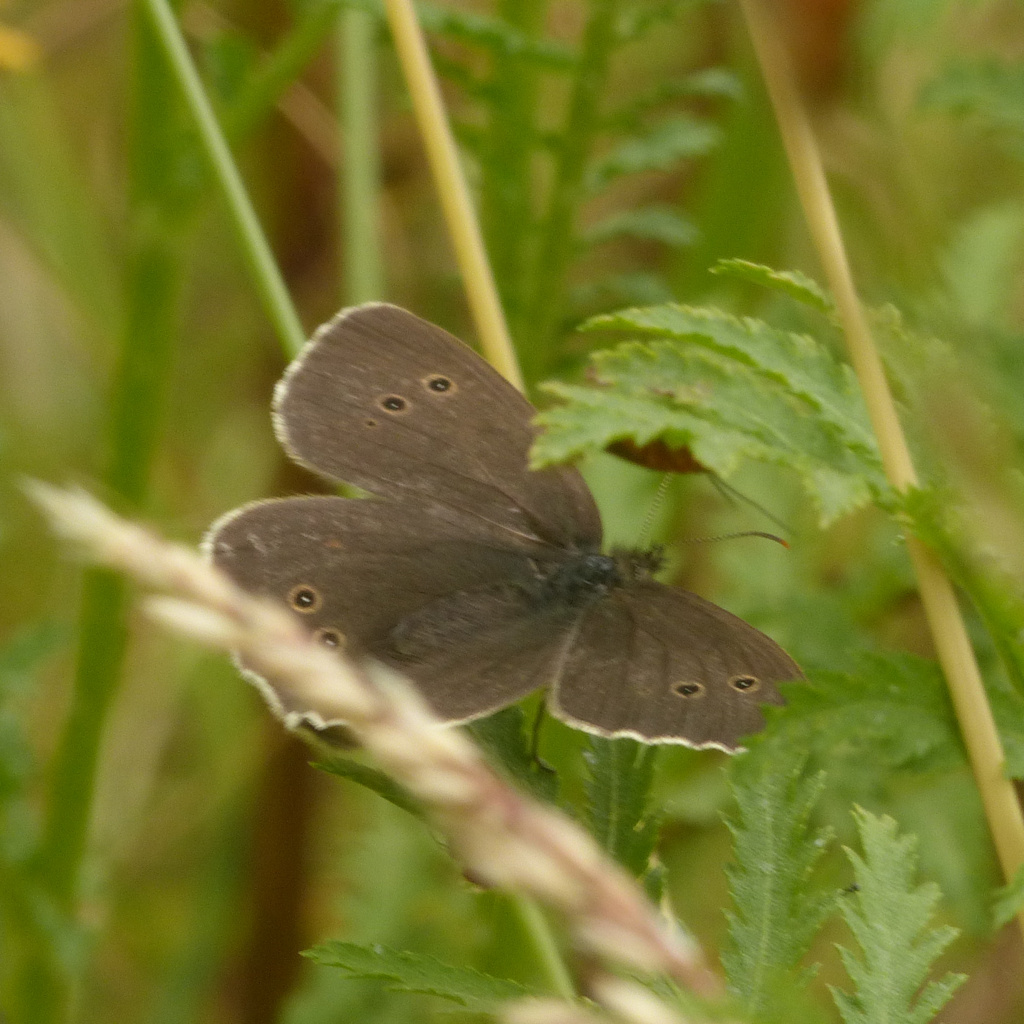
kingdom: Animalia
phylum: Arthropoda
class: Insecta
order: Lepidoptera
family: Nymphalidae
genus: Aphantopus
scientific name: Aphantopus hyperantus
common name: Ringlet
